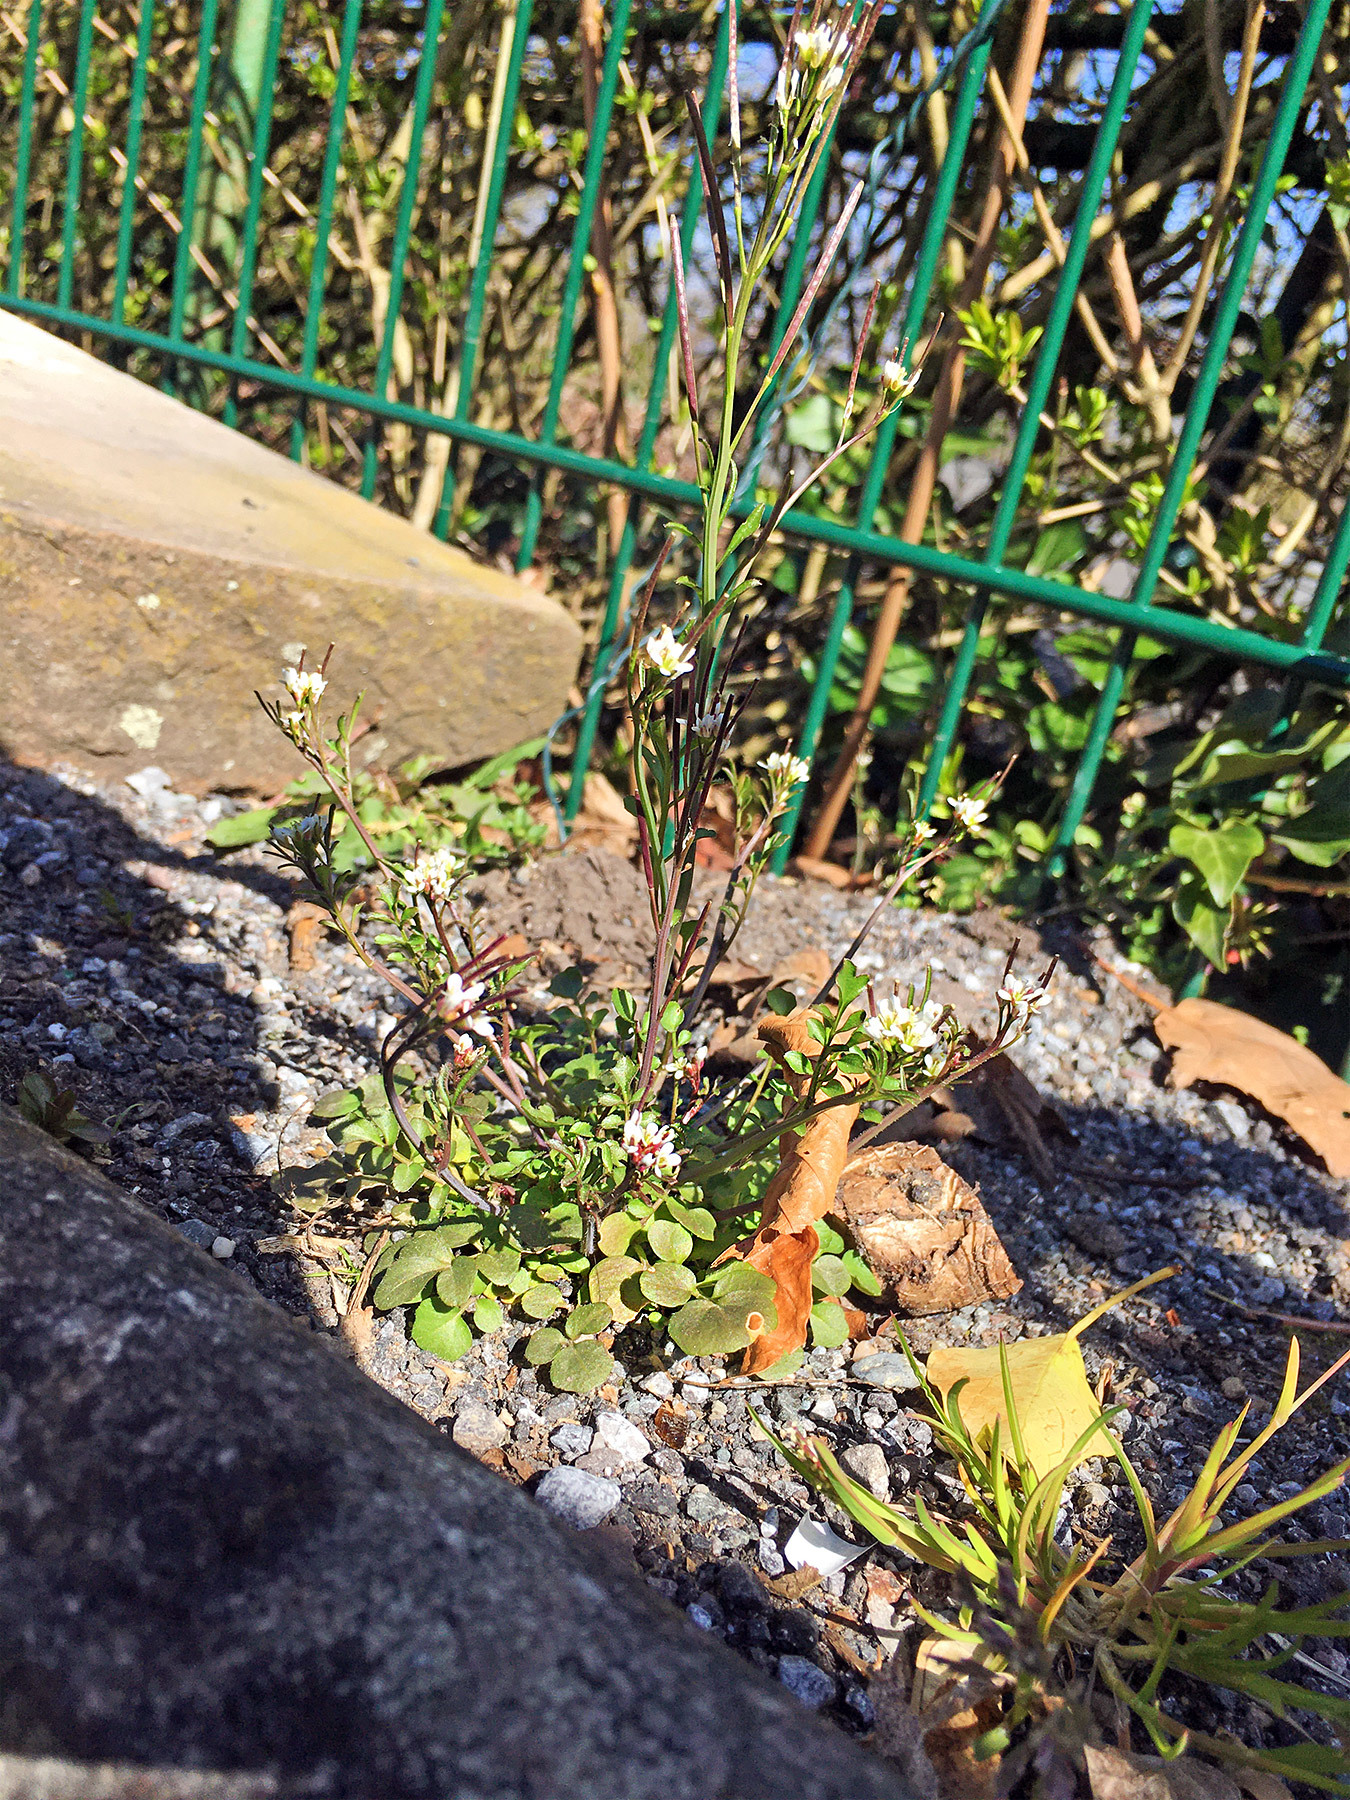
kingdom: Plantae
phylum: Tracheophyta
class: Magnoliopsida
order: Brassicales
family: Brassicaceae
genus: Cardamine
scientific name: Cardamine hirsuta
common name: Hairy bittercress
